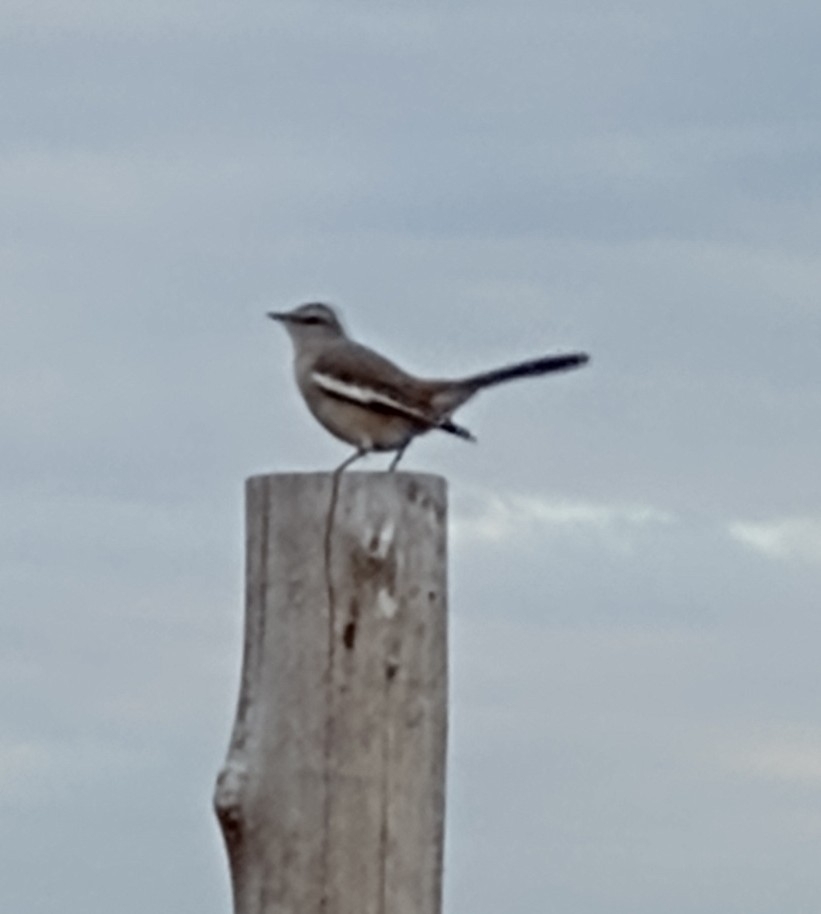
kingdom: Animalia
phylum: Chordata
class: Aves
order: Passeriformes
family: Mimidae
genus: Mimus
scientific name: Mimus triurus
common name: White-banded mockingbird
